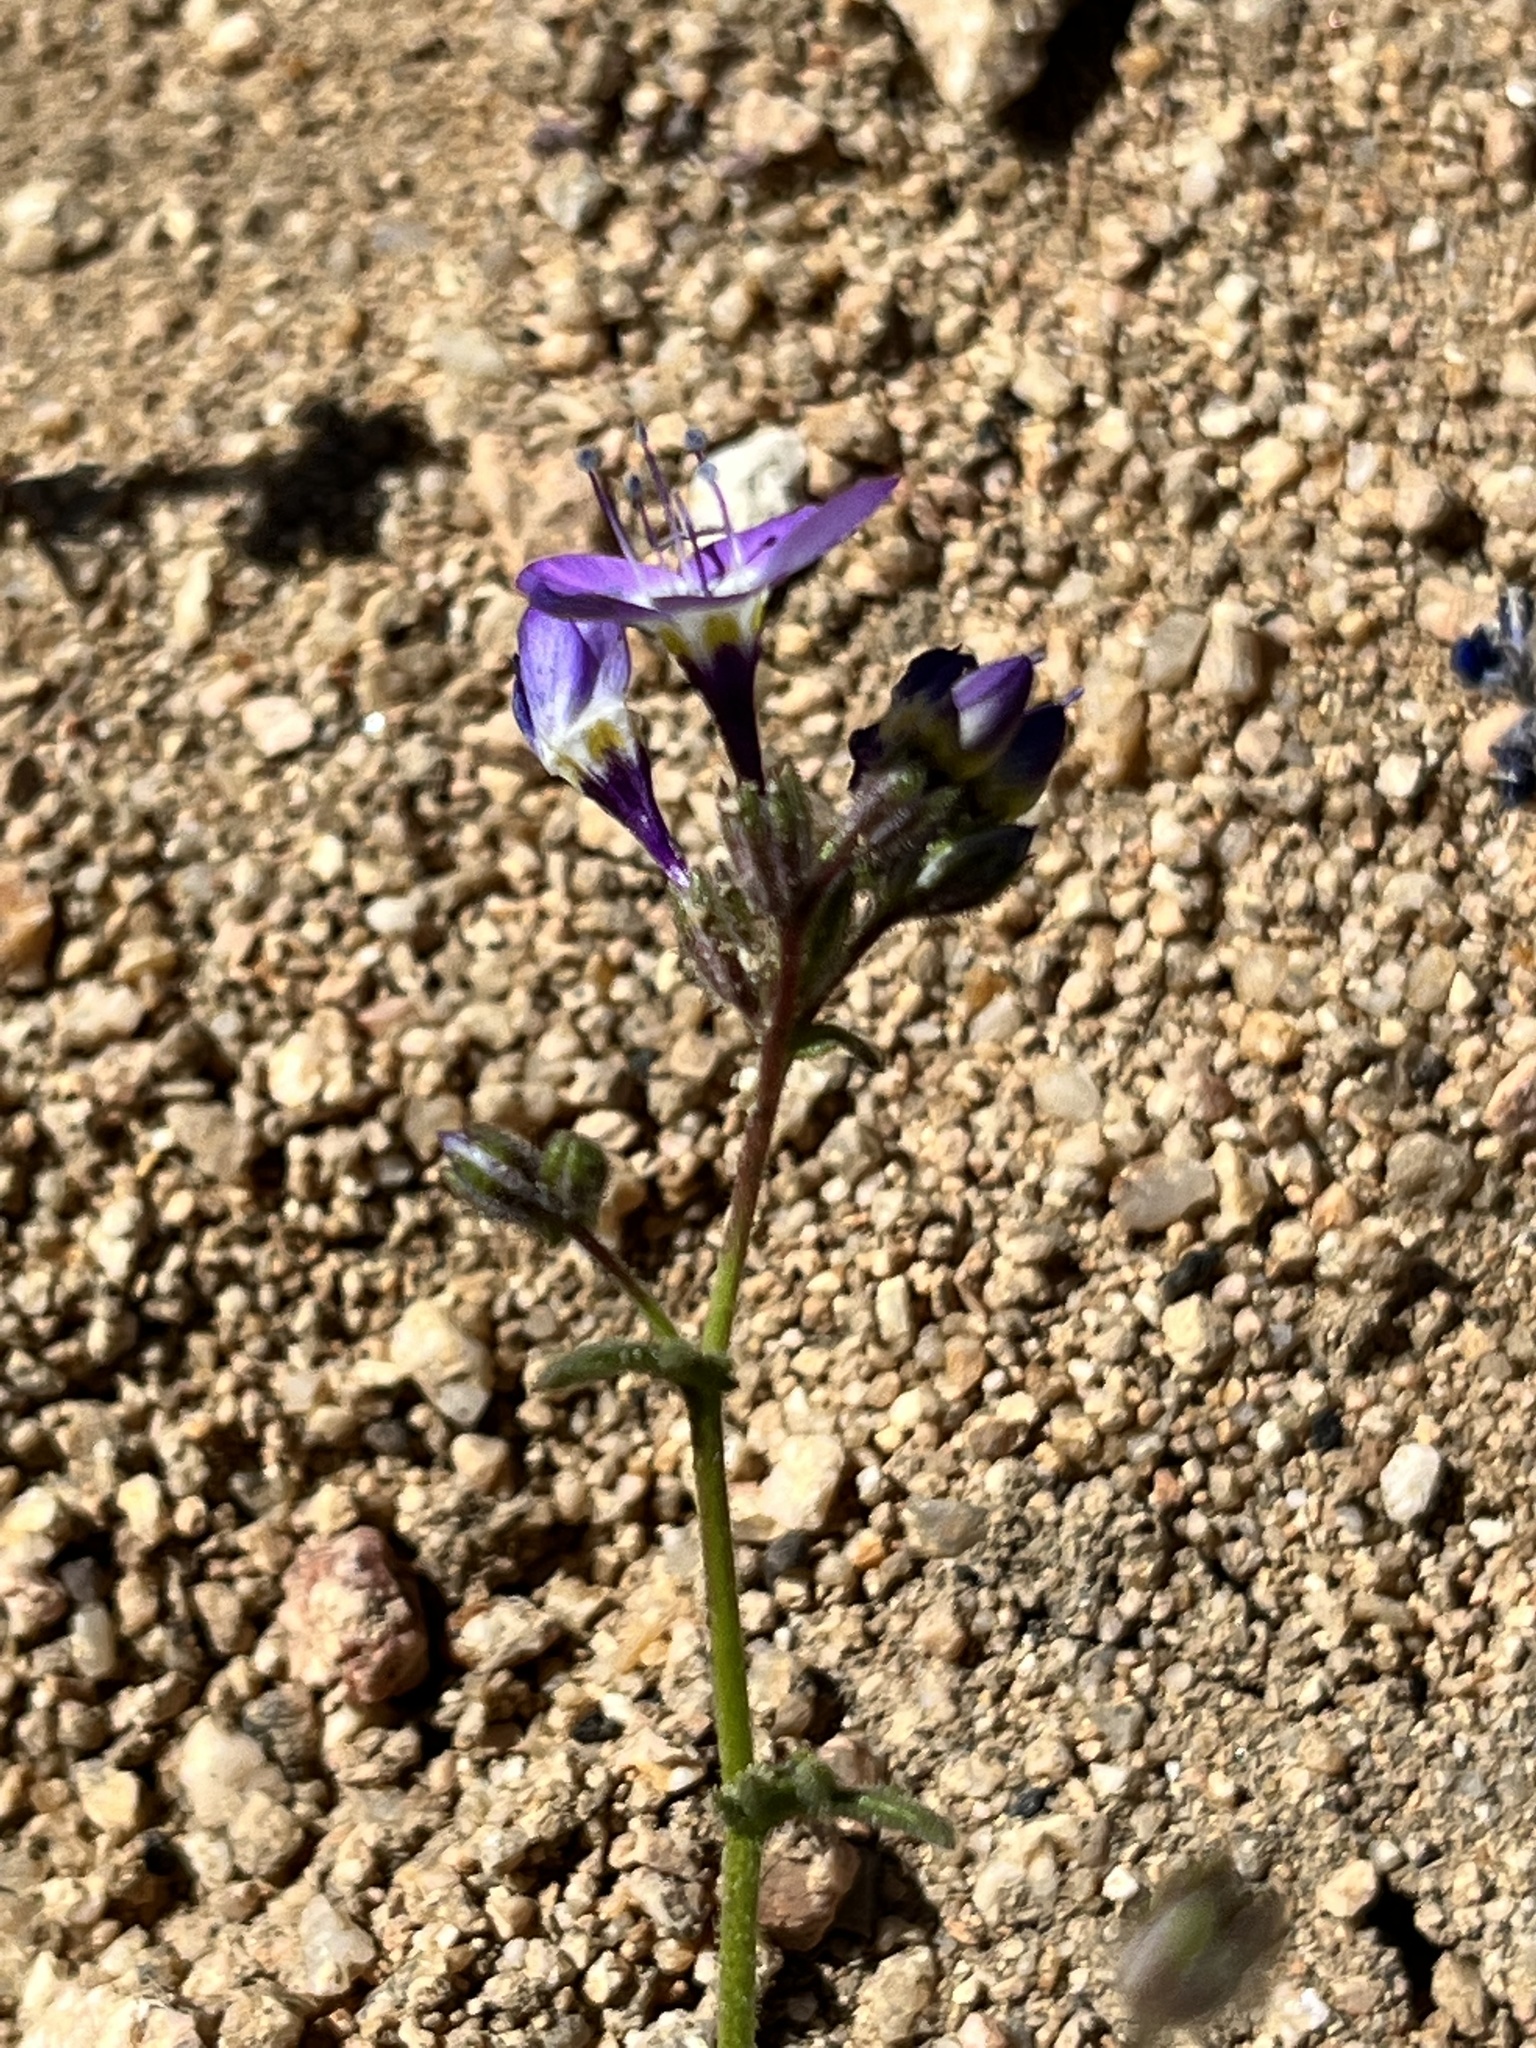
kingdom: Plantae
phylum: Tracheophyta
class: Magnoliopsida
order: Ericales
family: Polemoniaceae
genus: Gilia
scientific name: Gilia brecciarum
